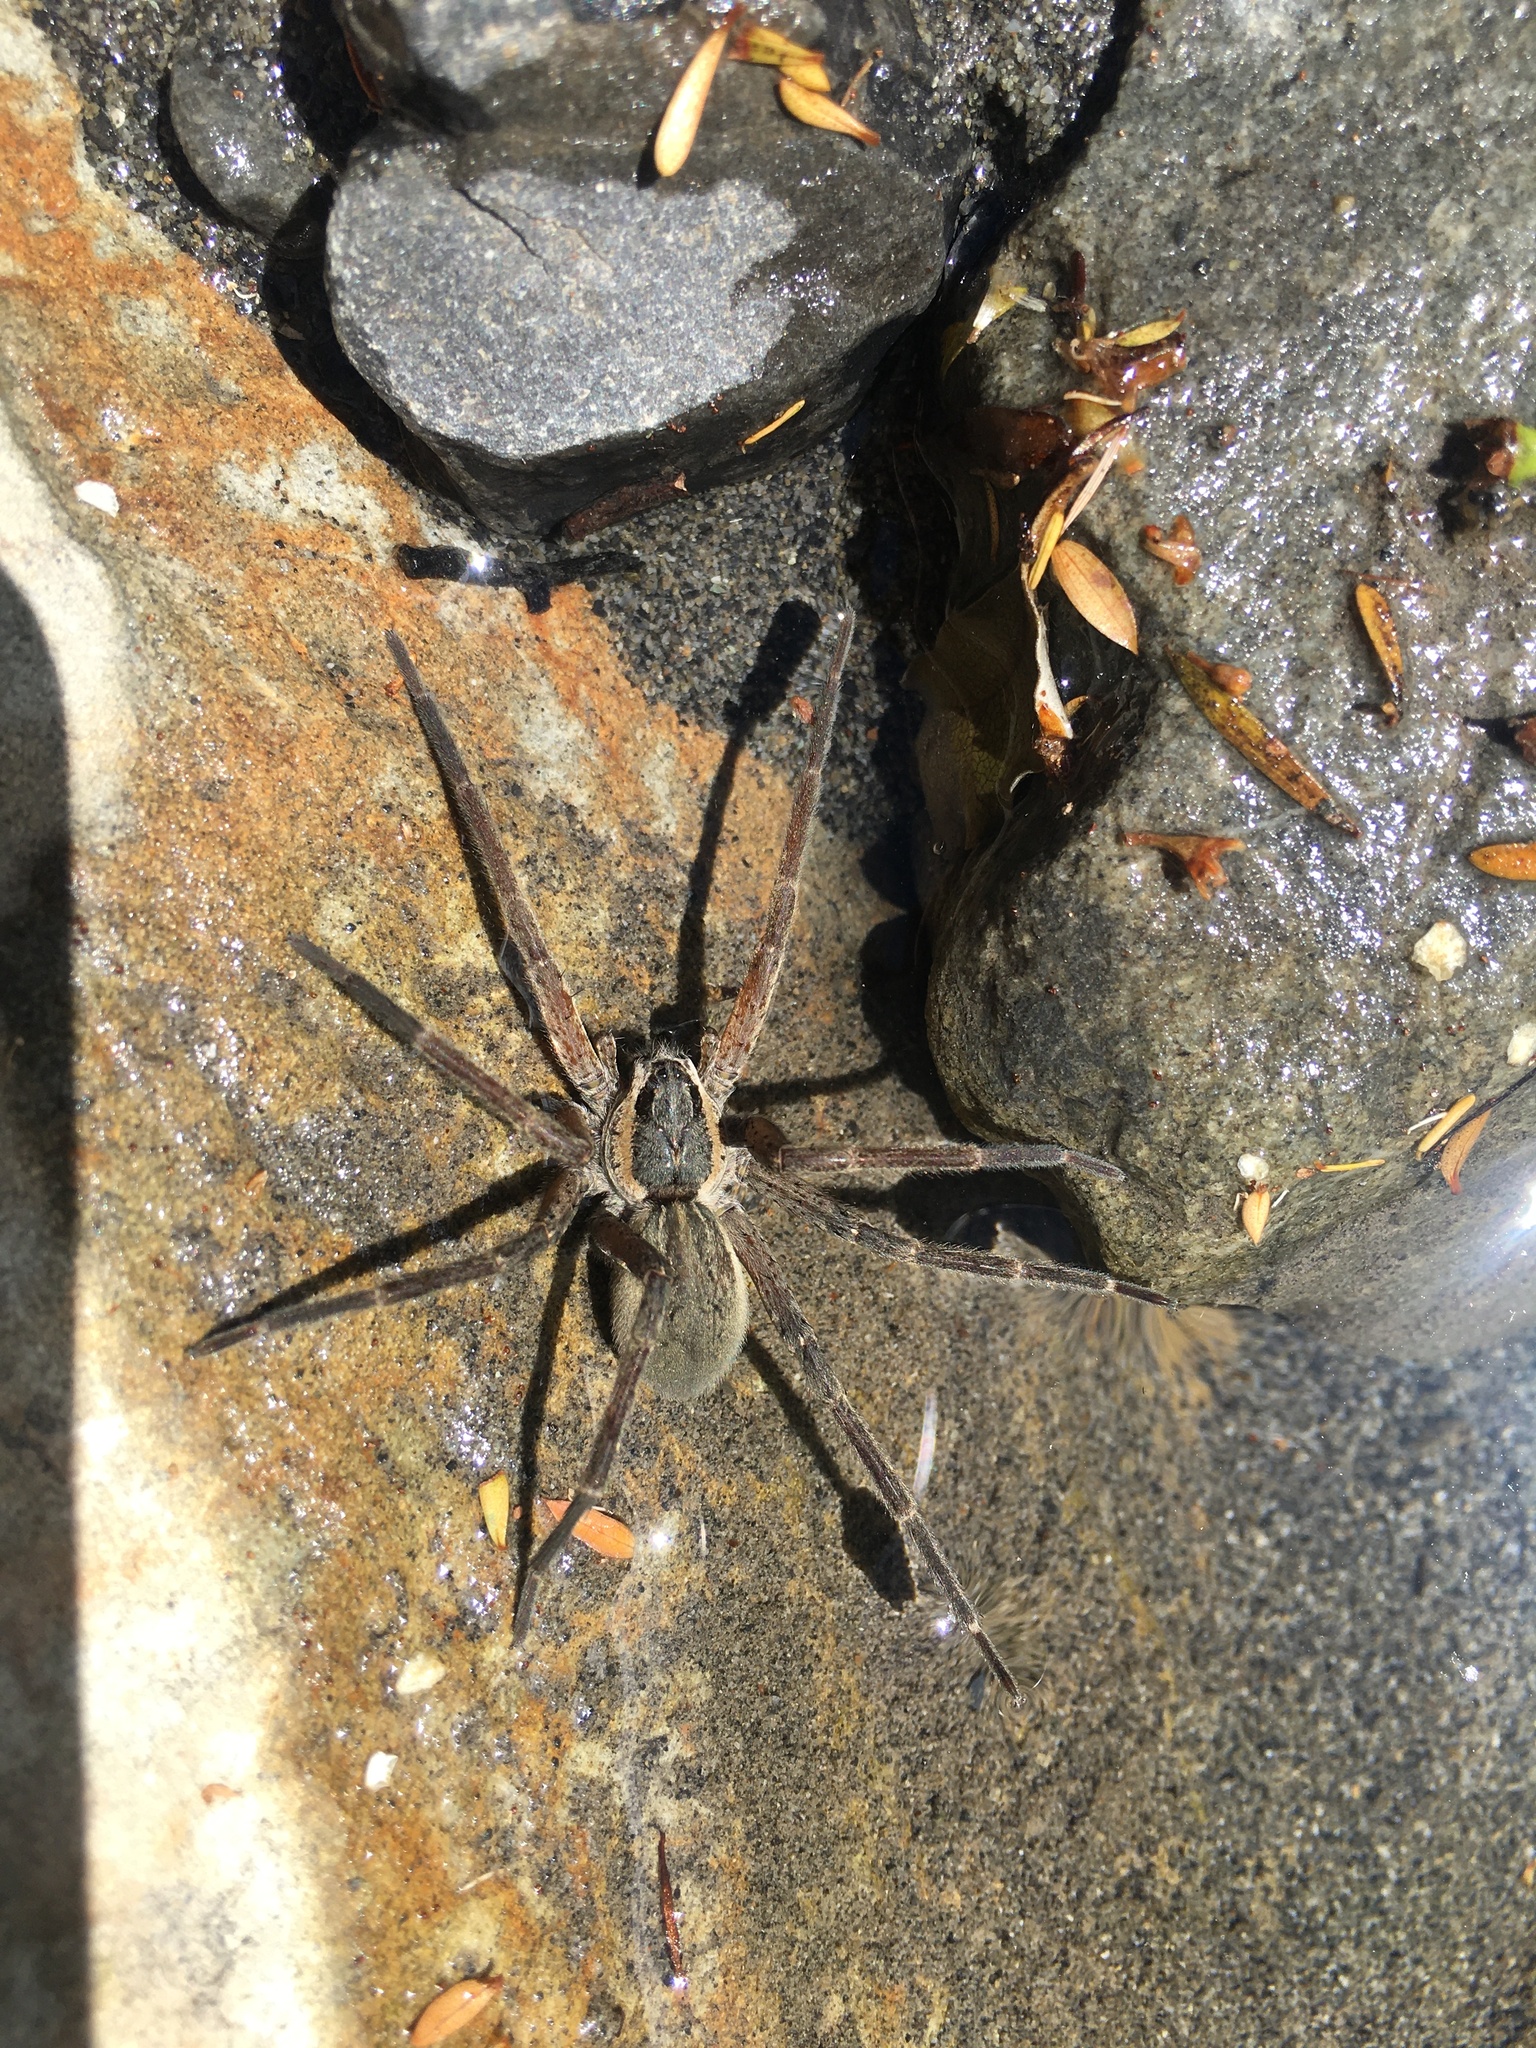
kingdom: Animalia
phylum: Arthropoda
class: Arachnida
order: Araneae
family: Pisauridae
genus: Dolomedes
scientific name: Dolomedes aquaticus
